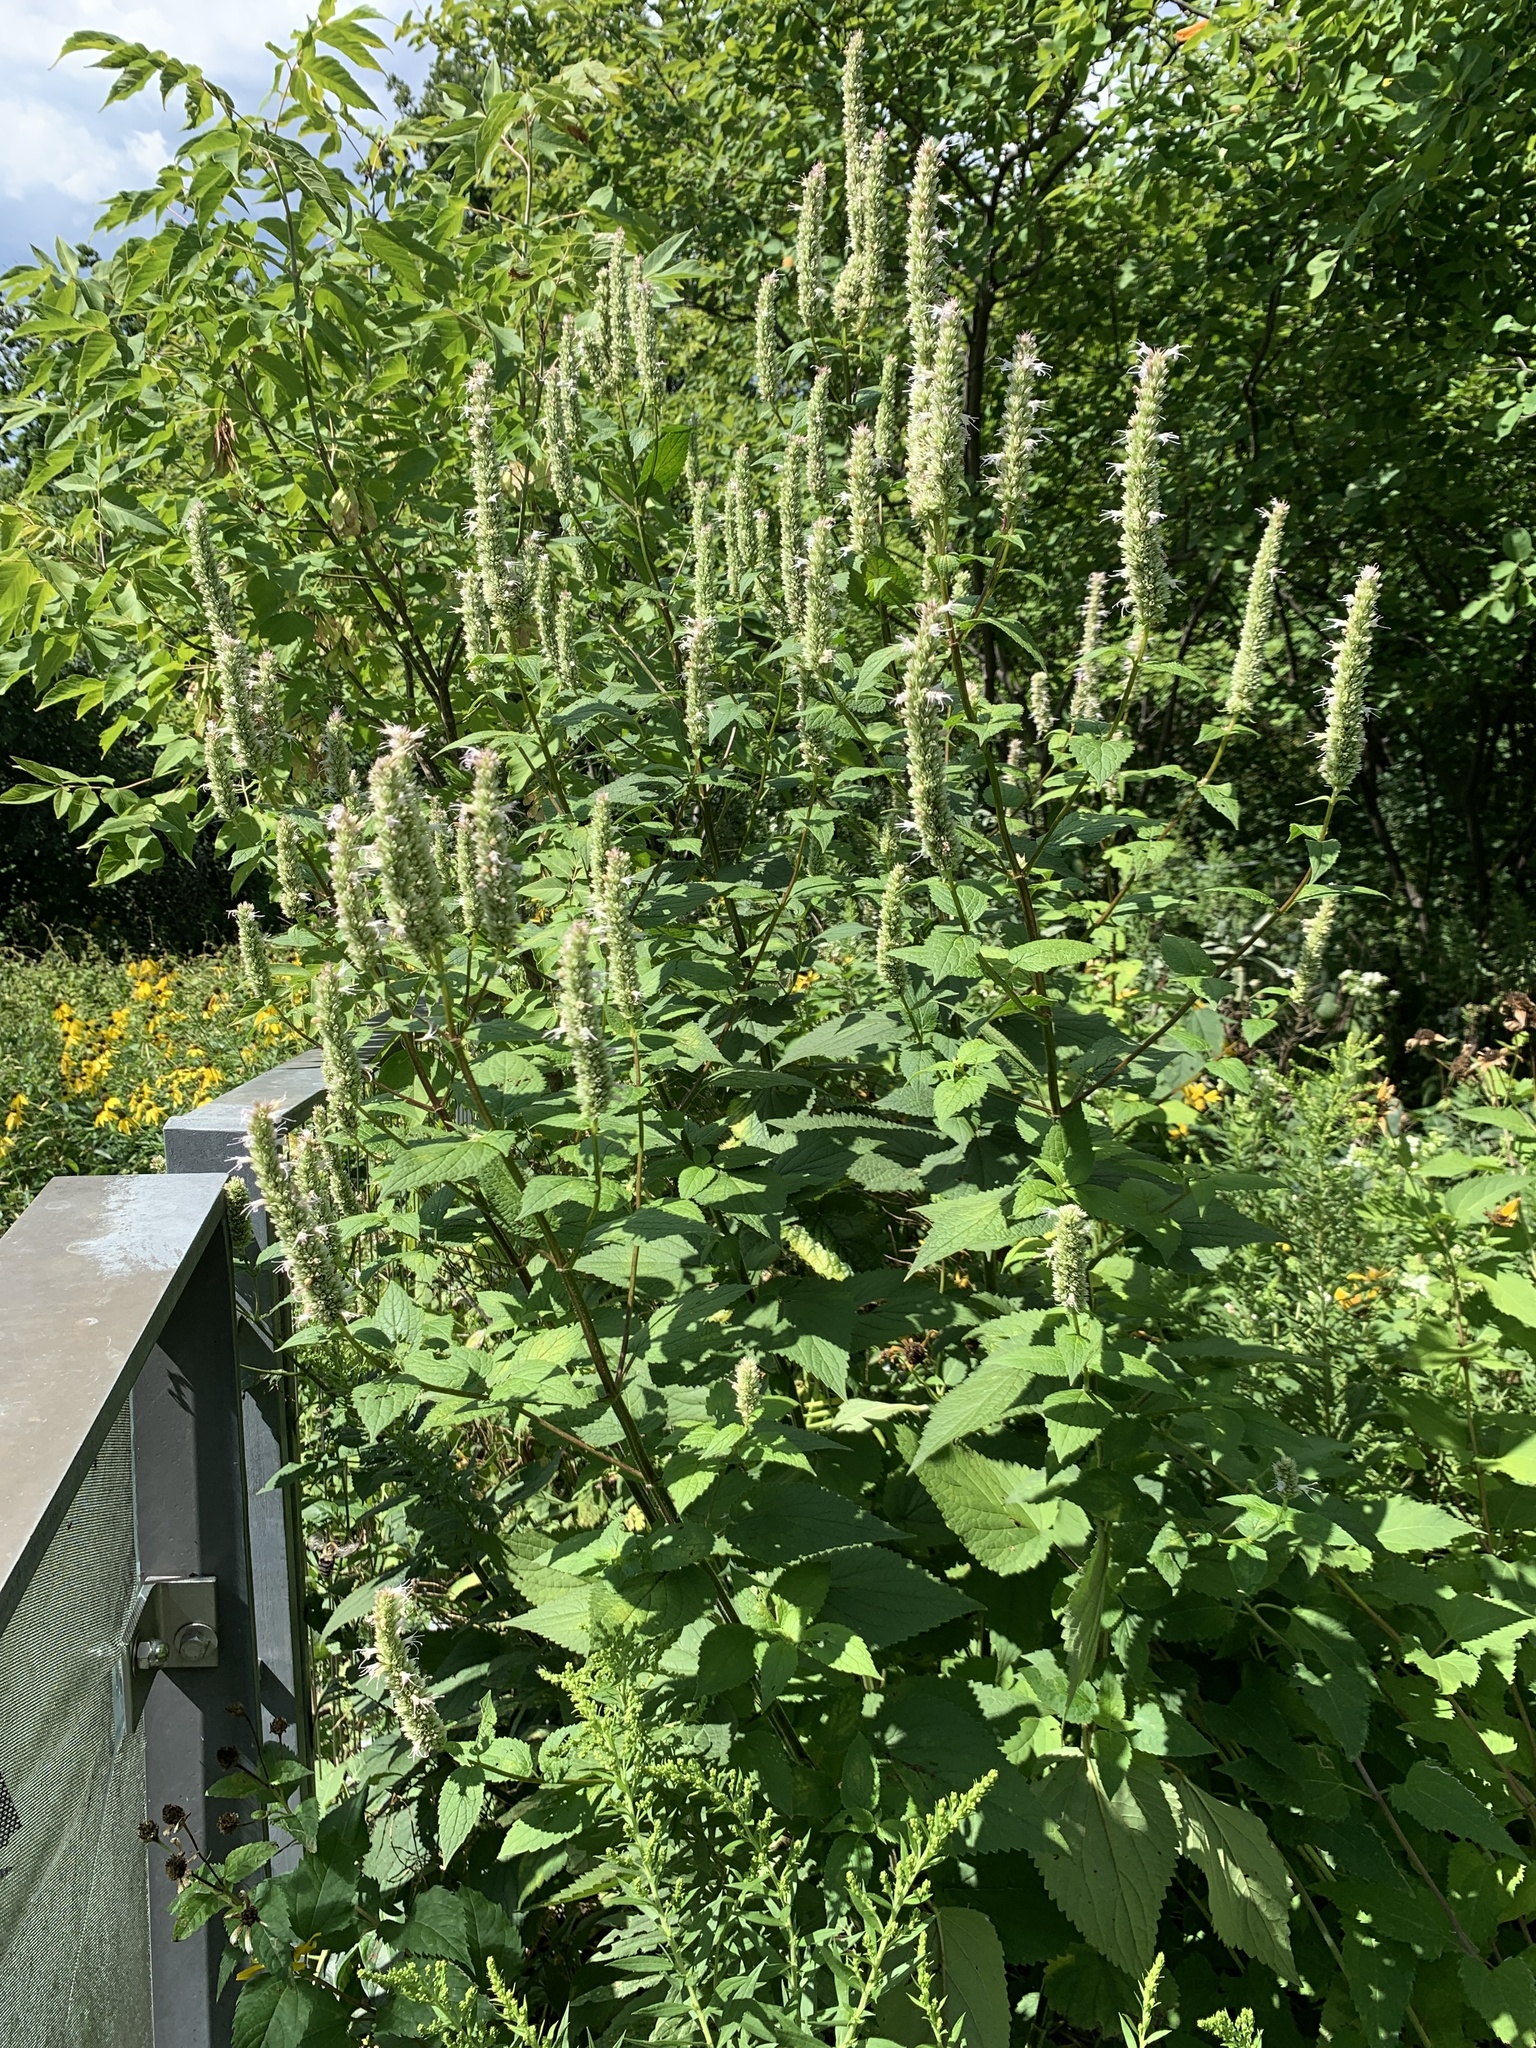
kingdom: Plantae
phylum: Tracheophyta
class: Magnoliopsida
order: Lamiales
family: Lamiaceae
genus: Agastache
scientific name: Agastache scrophulariifolia
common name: Figwort giant hyssop
